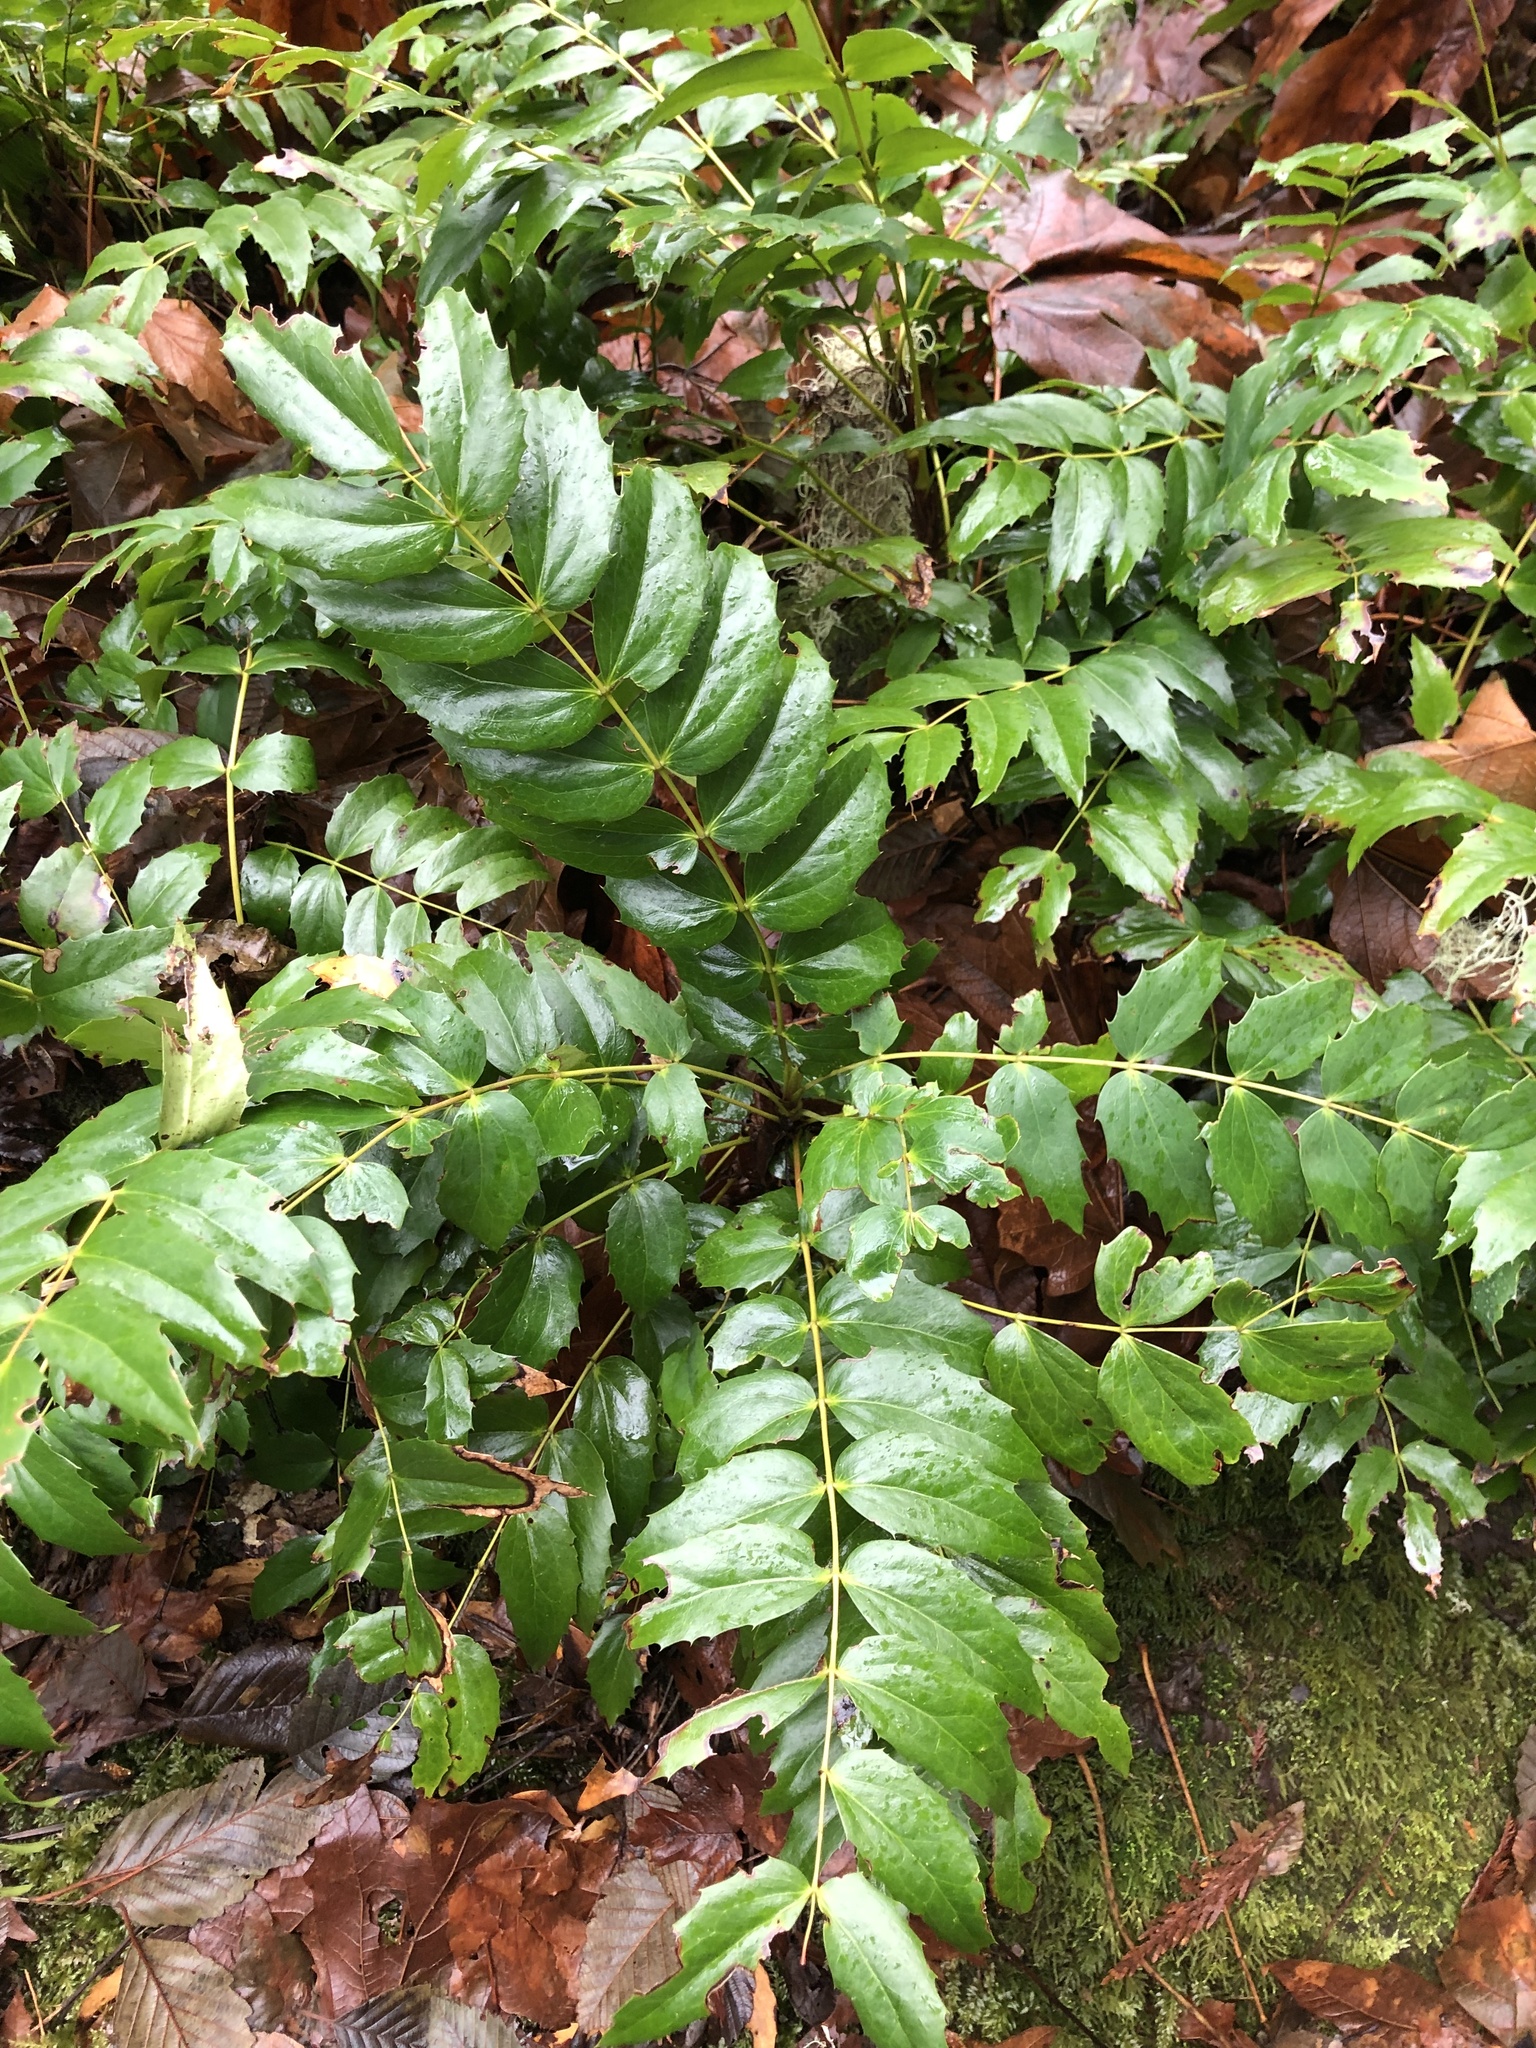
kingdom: Plantae
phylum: Tracheophyta
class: Magnoliopsida
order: Ranunculales
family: Berberidaceae
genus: Mahonia
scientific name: Mahonia nervosa
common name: Cascade oregon-grape
